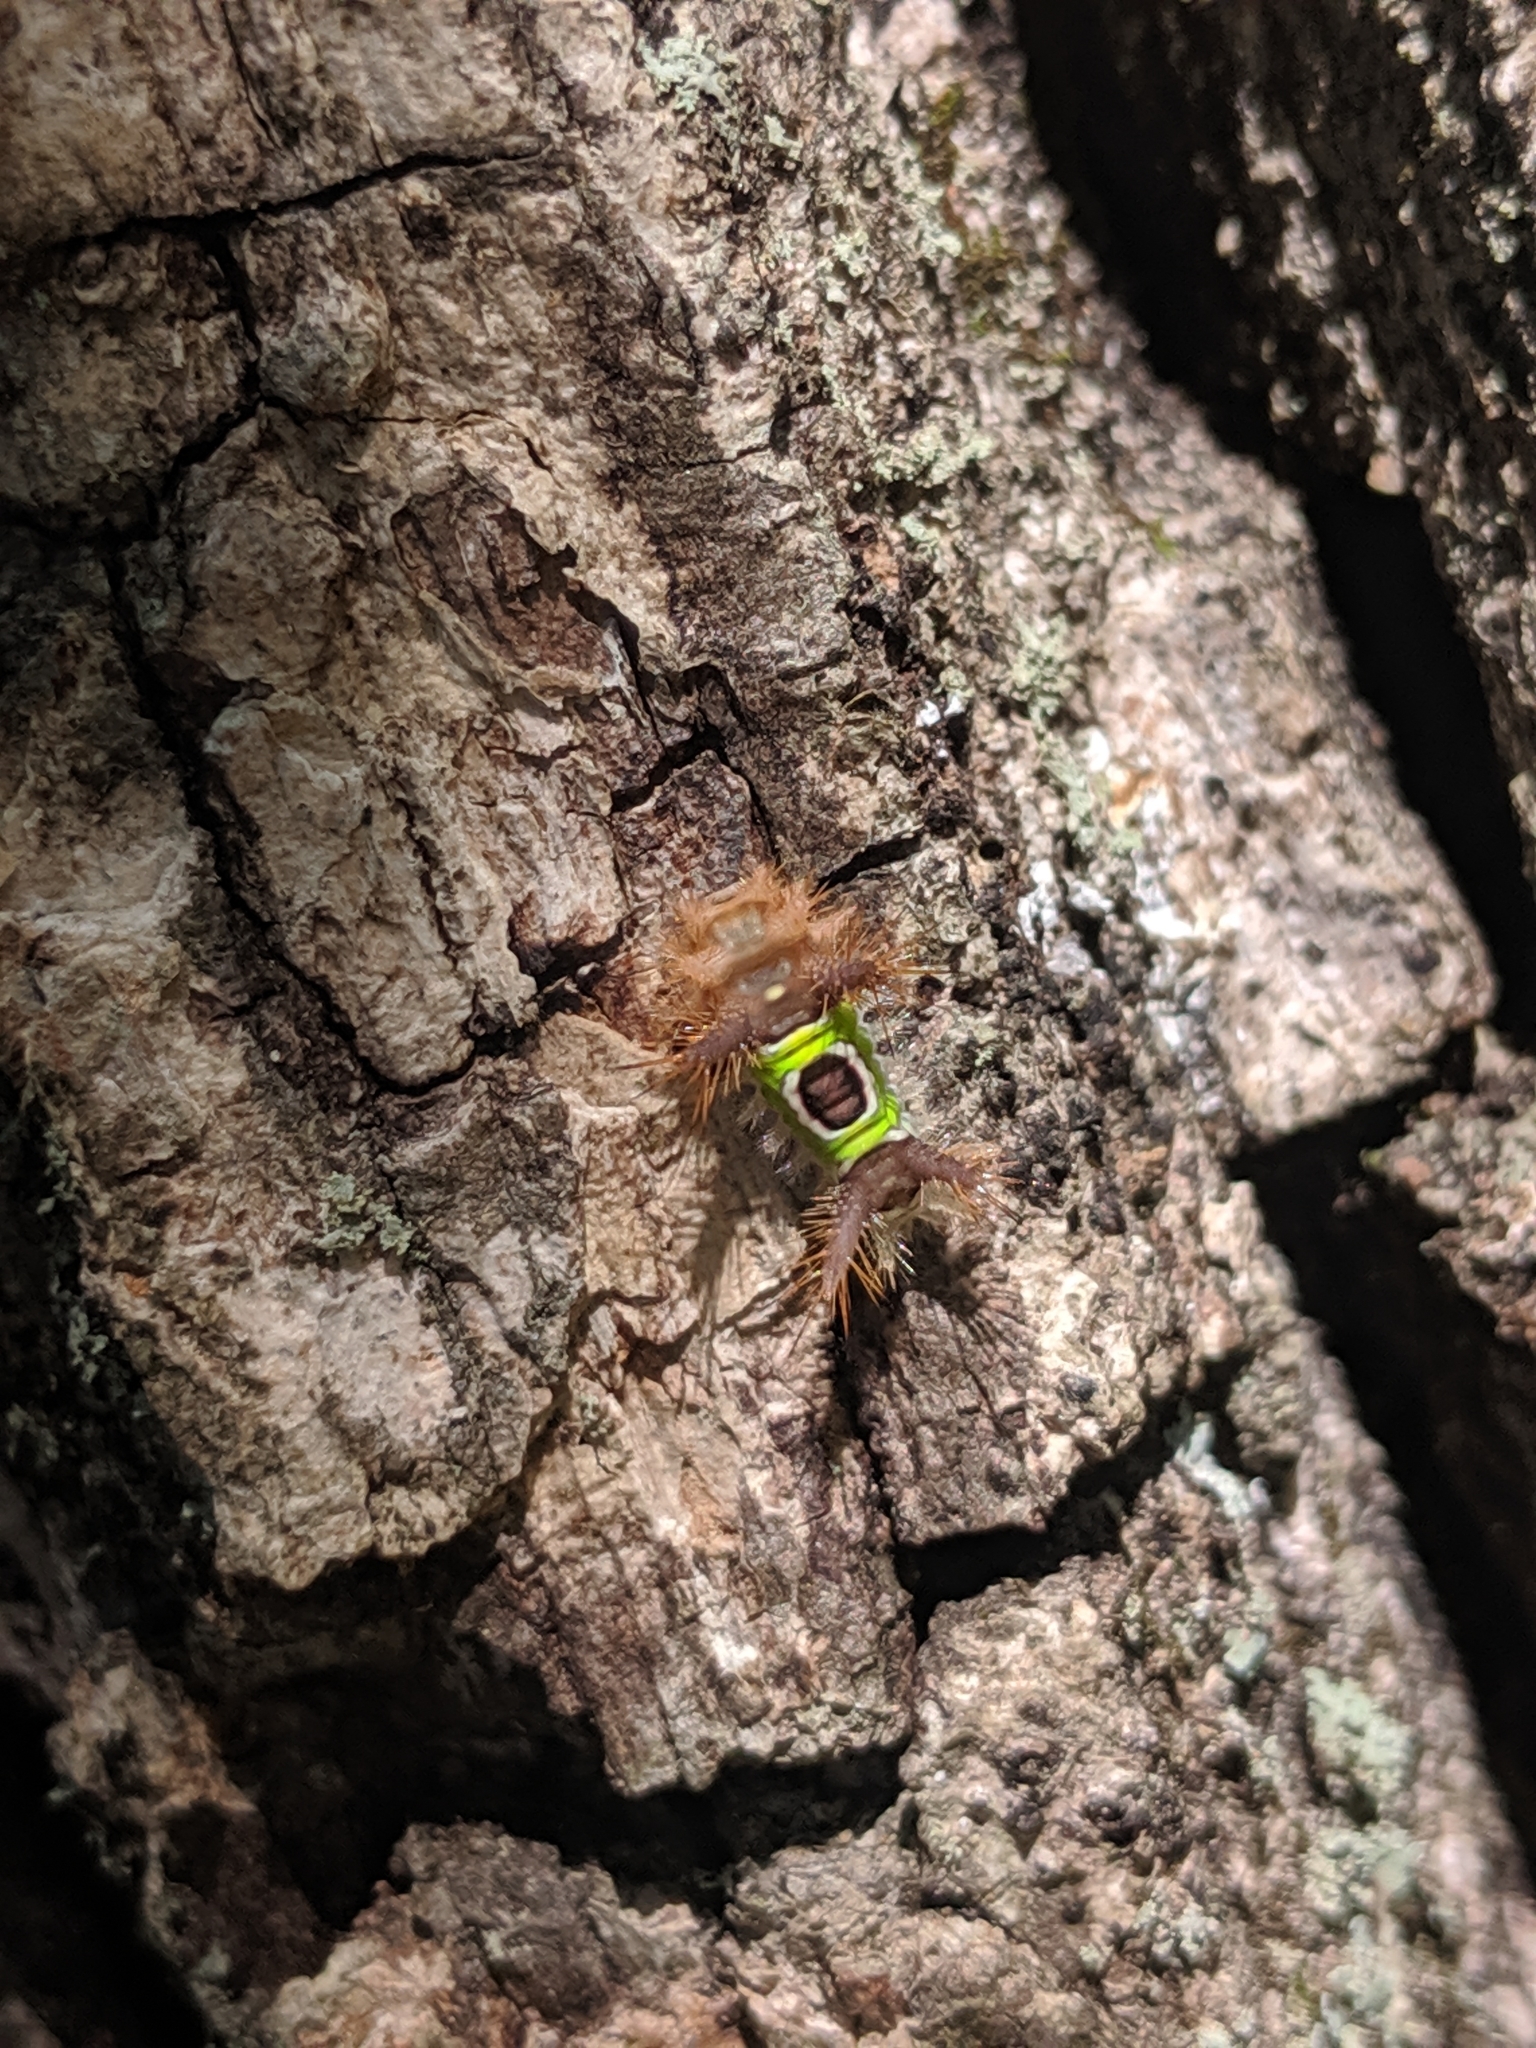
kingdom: Animalia
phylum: Arthropoda
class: Insecta
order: Lepidoptera
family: Limacodidae
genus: Acharia
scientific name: Acharia stimulea
